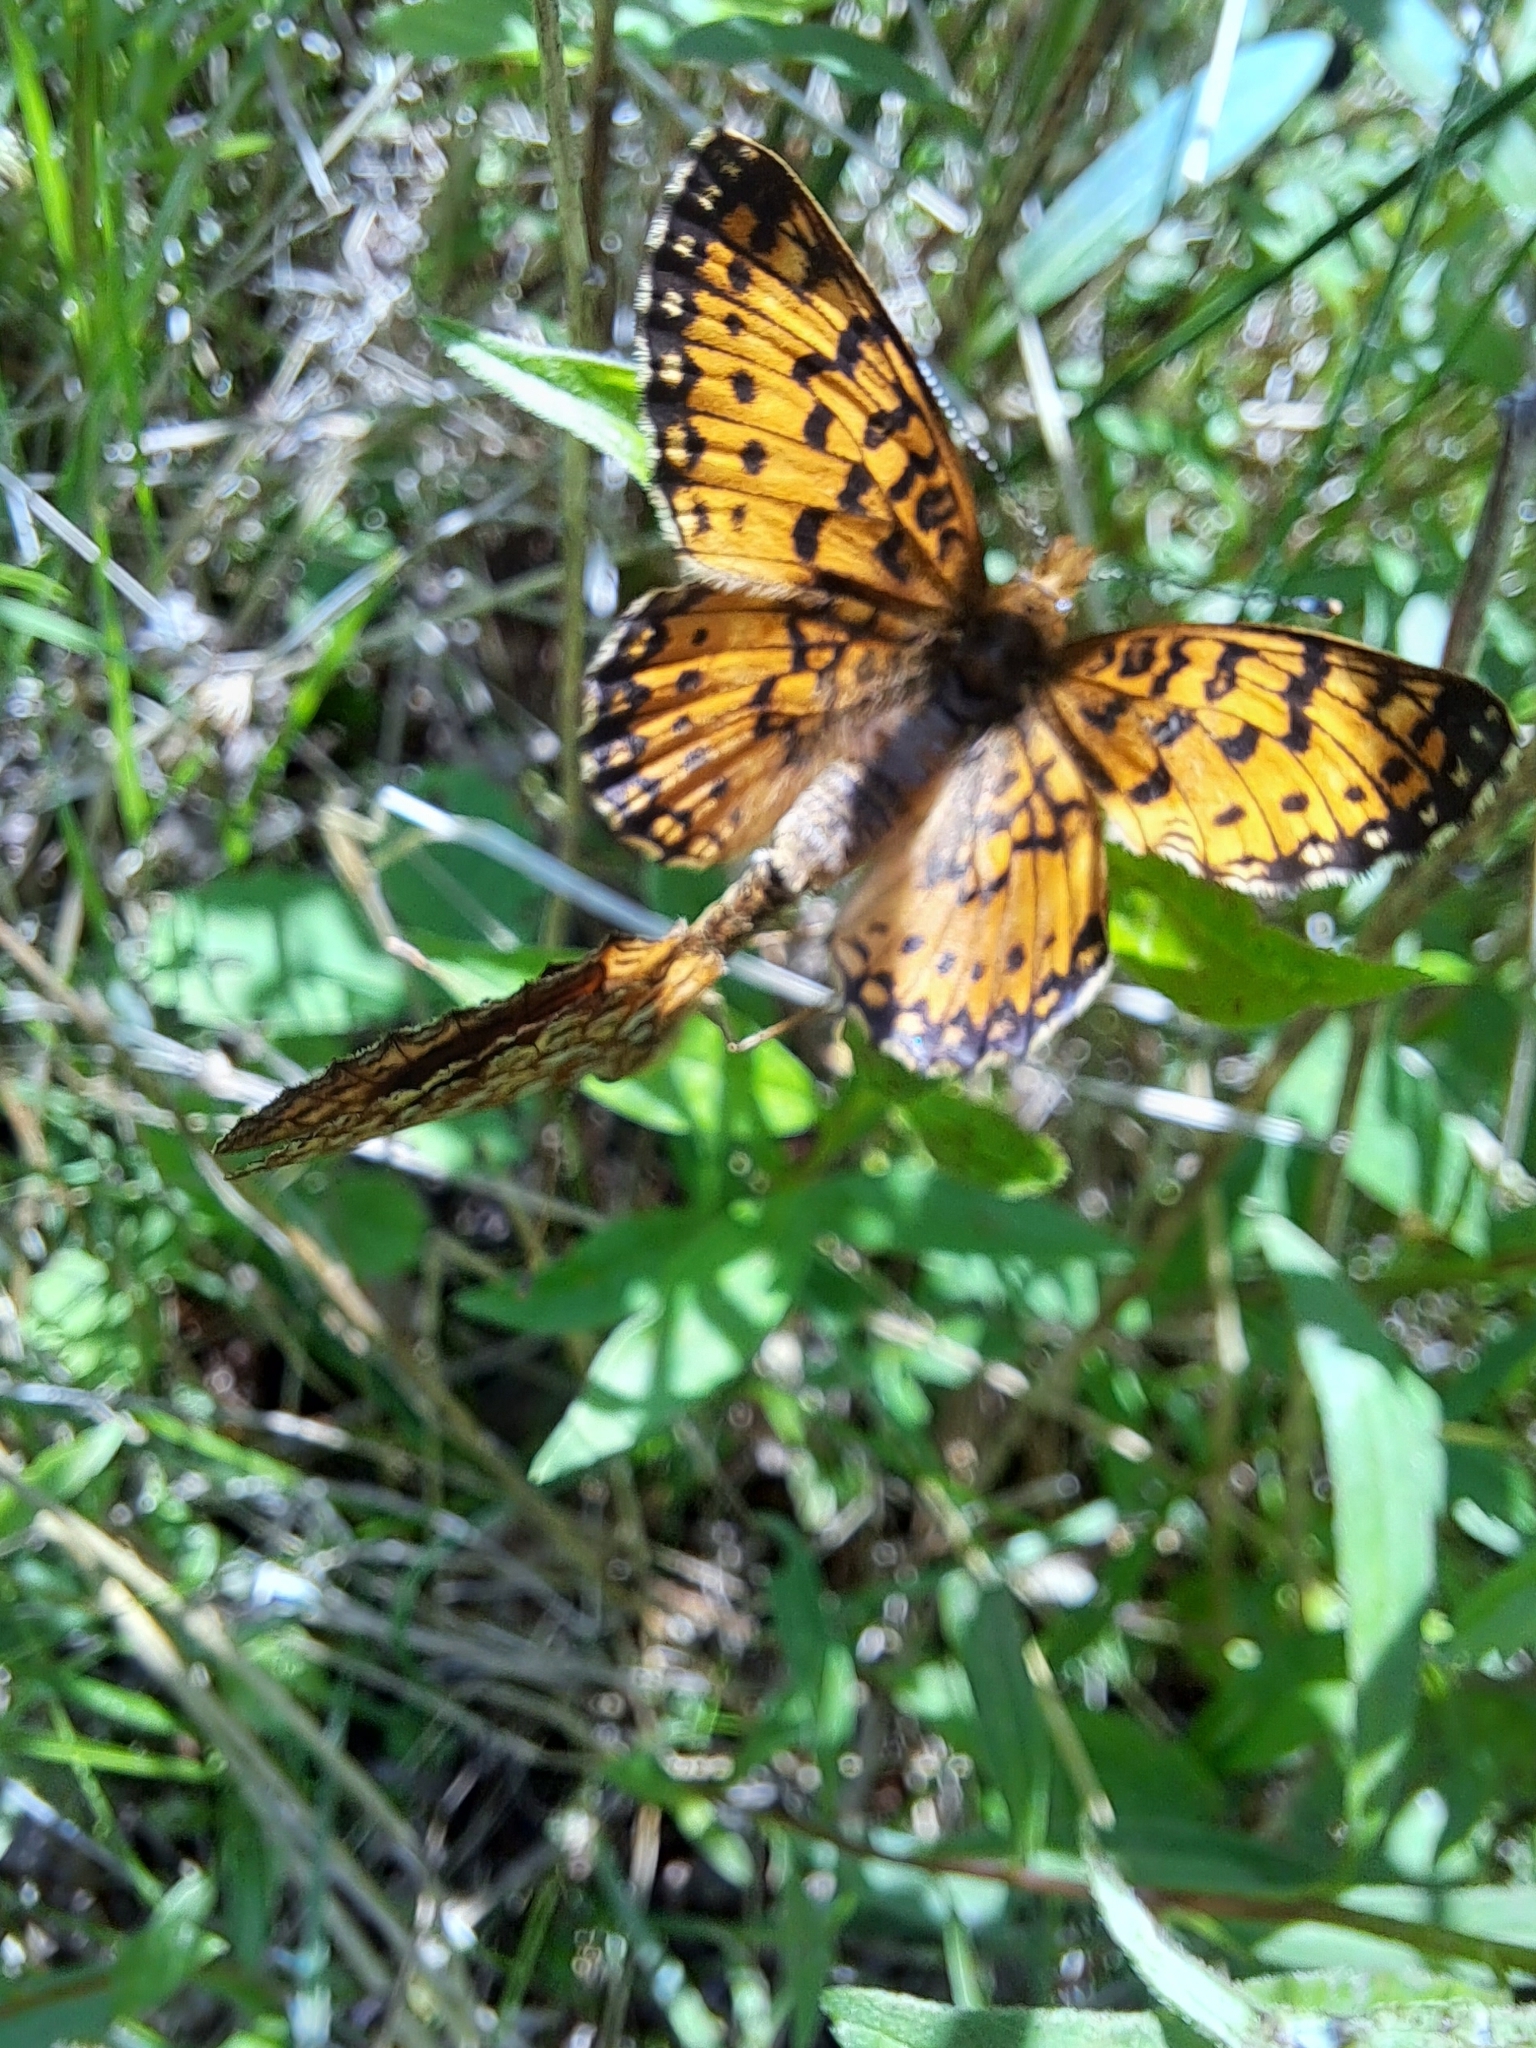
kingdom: Animalia
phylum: Arthropoda
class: Insecta
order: Lepidoptera
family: Nymphalidae
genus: Boloria
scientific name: Boloria
